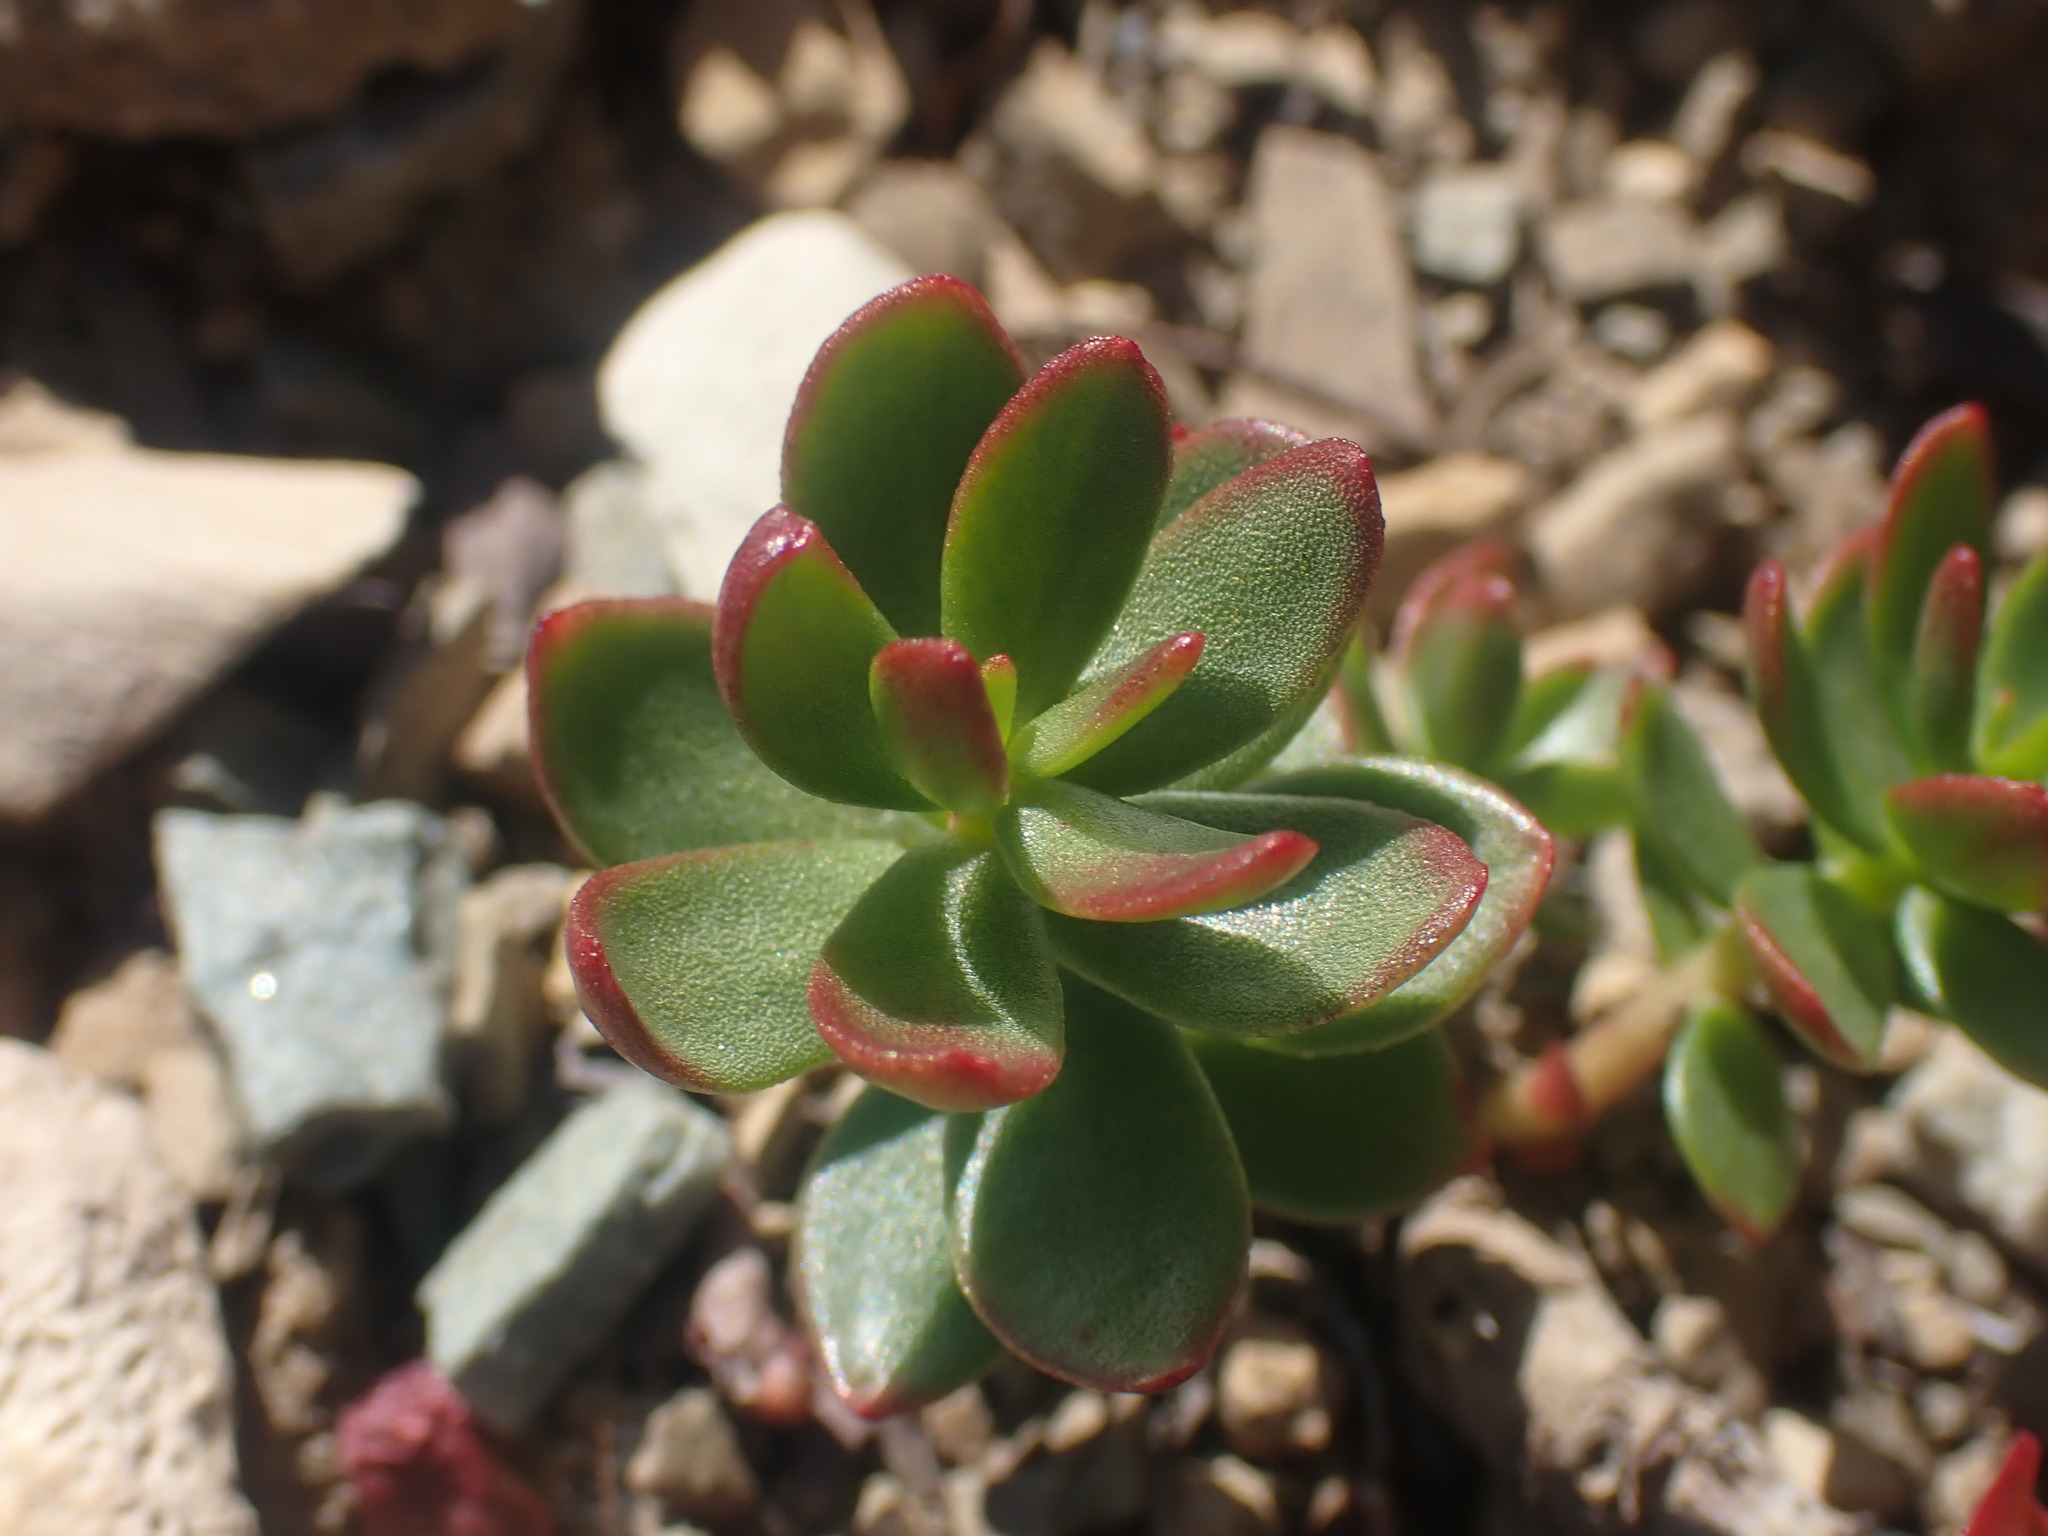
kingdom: Plantae
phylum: Tracheophyta
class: Magnoliopsida
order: Saxifragales
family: Crassulaceae
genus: Rhodiola
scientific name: Rhodiola integrifolia
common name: Western roseroot
